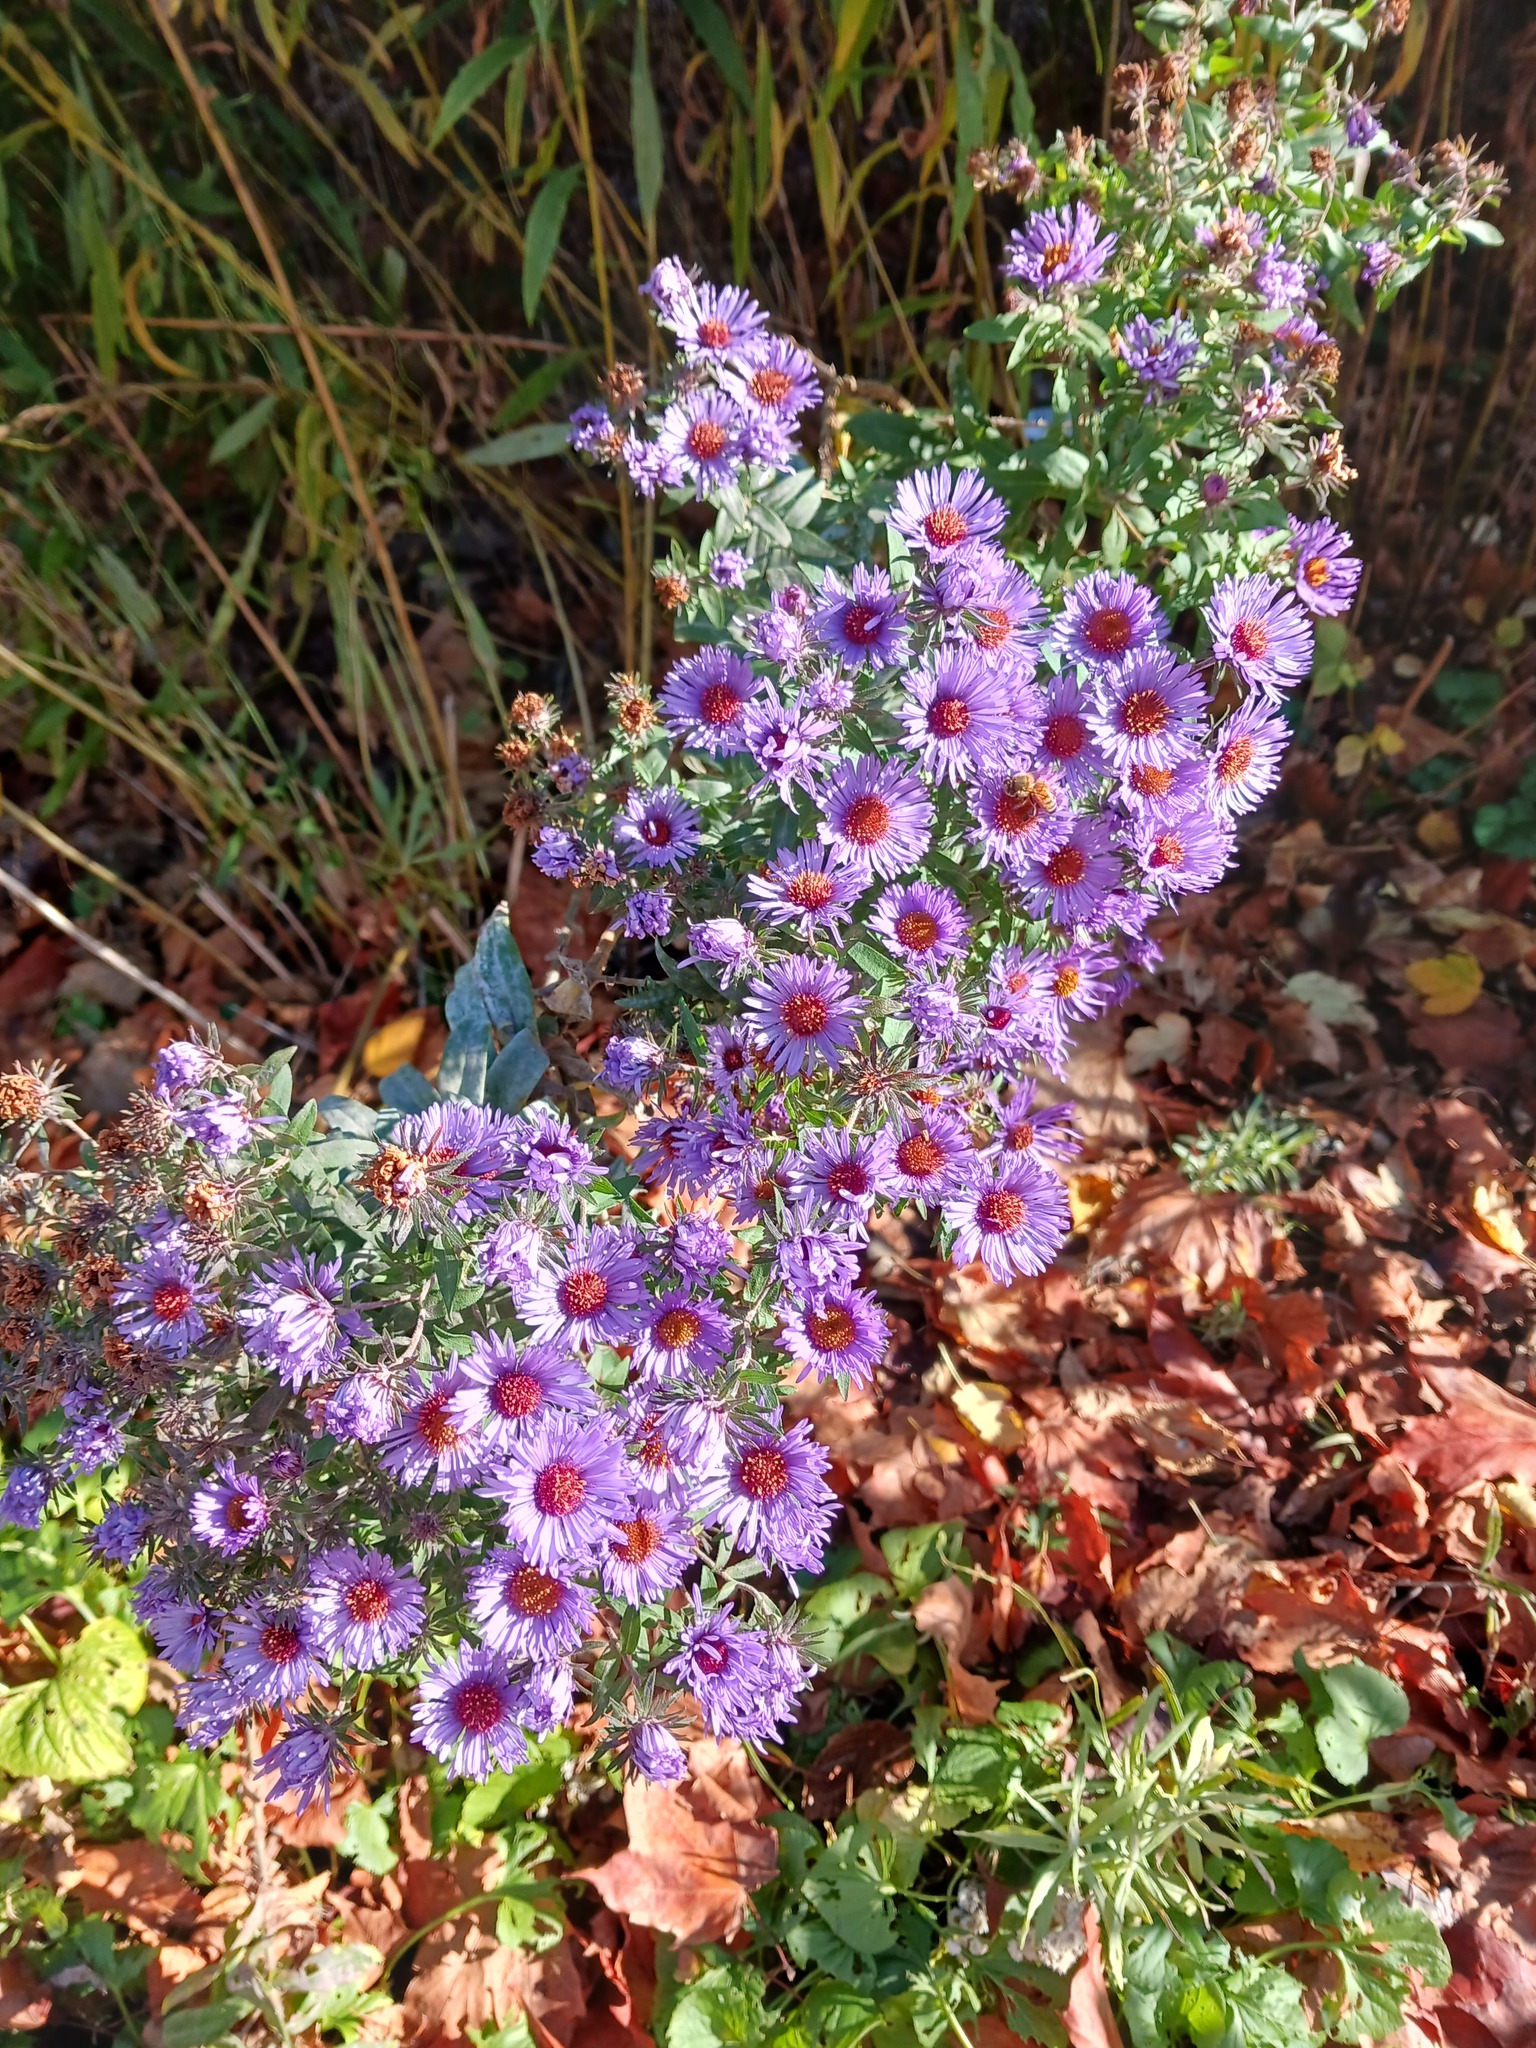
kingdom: Plantae
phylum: Tracheophyta
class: Magnoliopsida
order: Asterales
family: Asteraceae
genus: Symphyotrichum
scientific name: Symphyotrichum novae-angliae
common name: Michaelmas daisy
